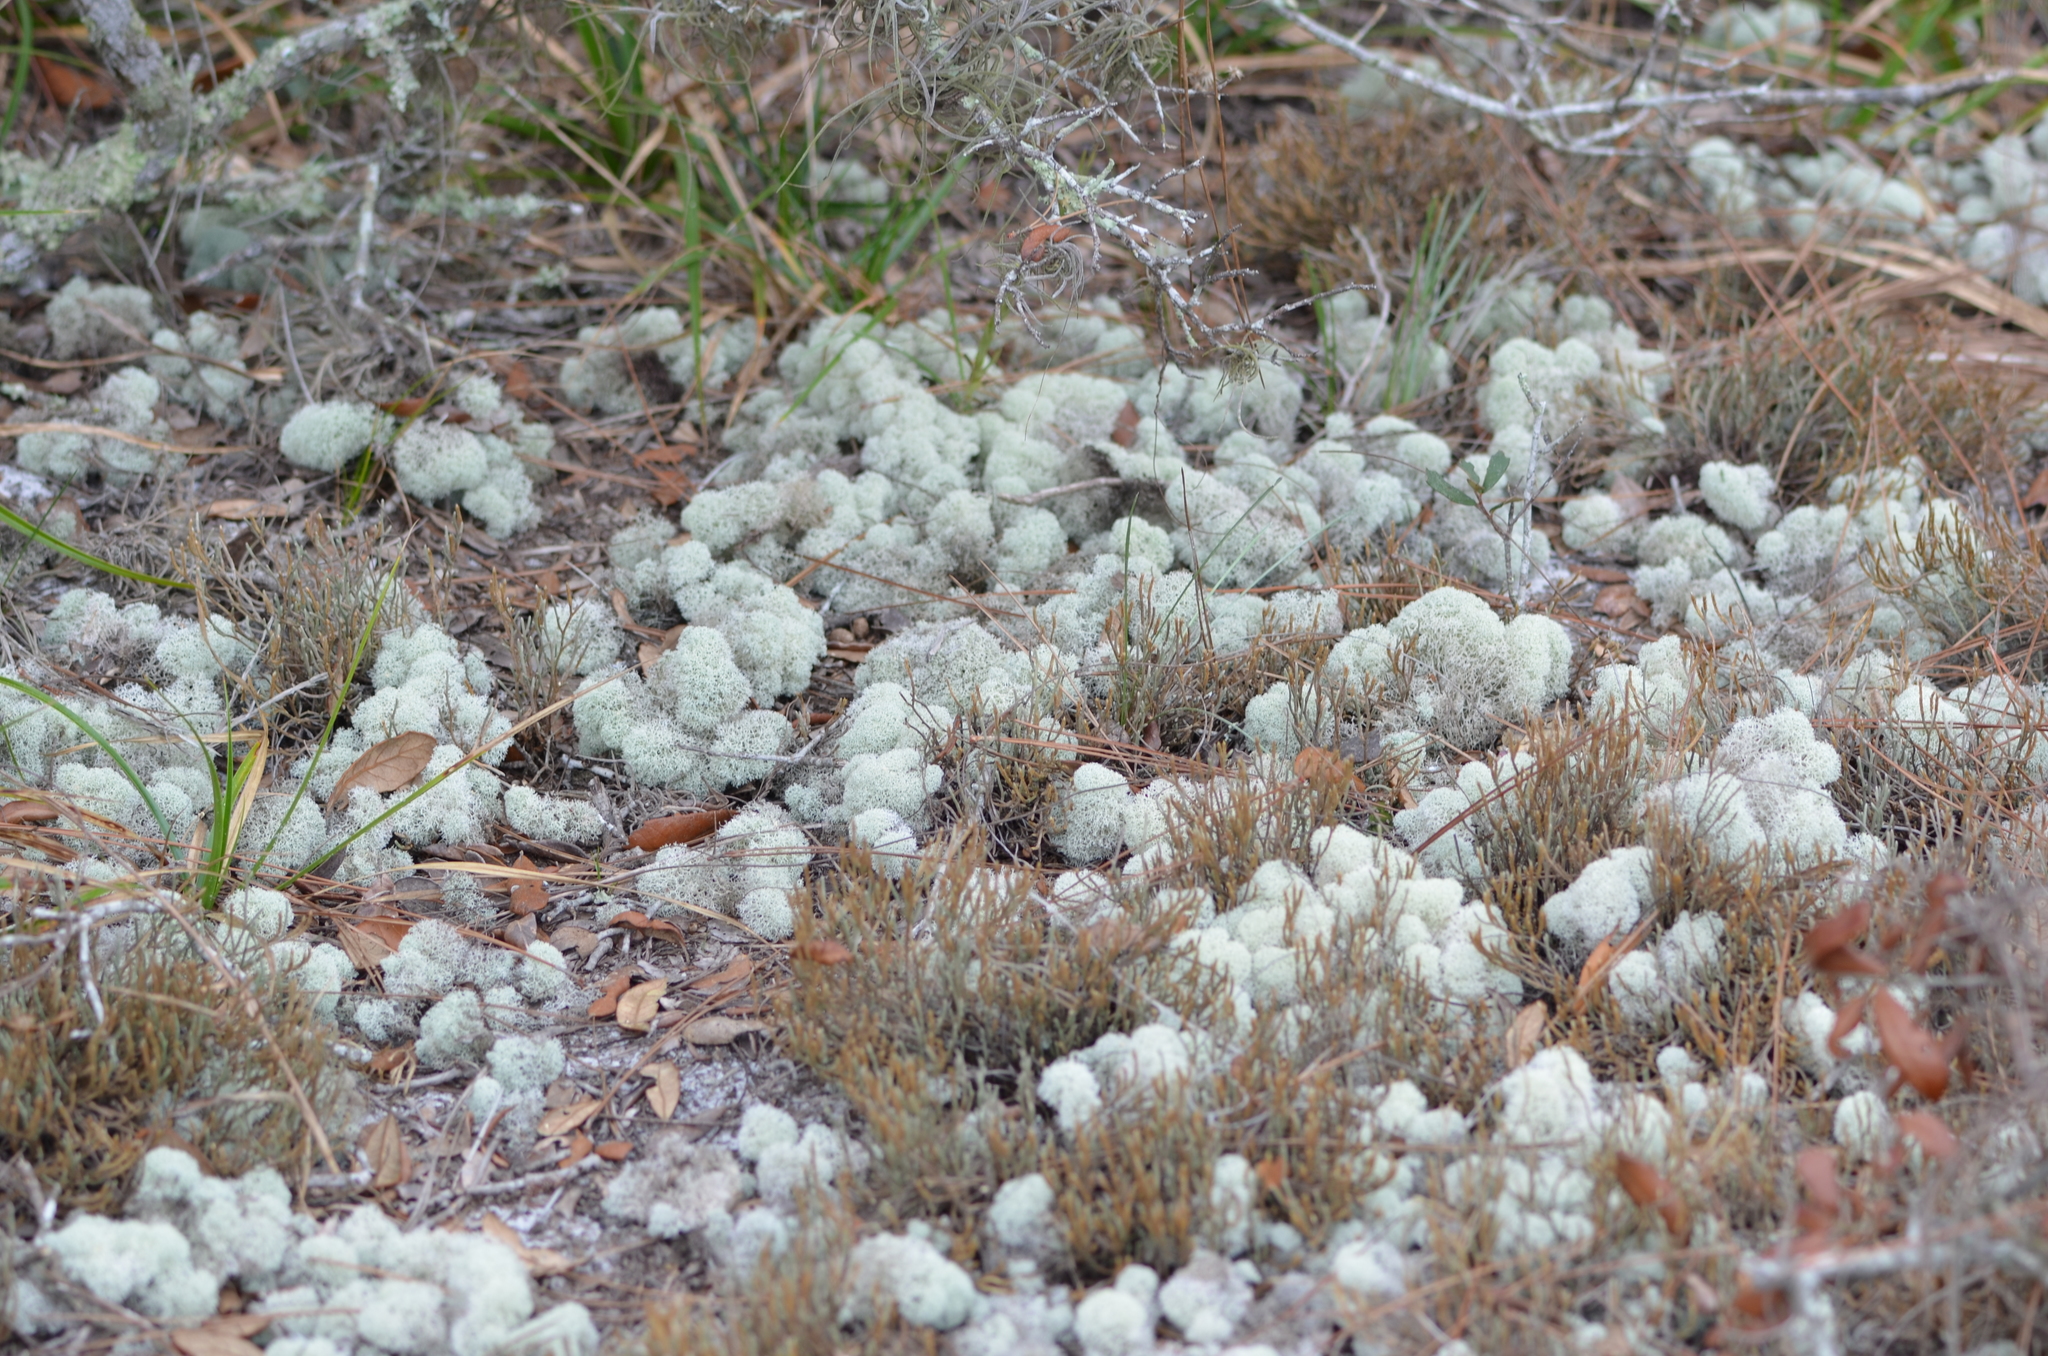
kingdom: Fungi
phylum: Ascomycota
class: Lecanoromycetes
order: Lecanorales
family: Cladoniaceae
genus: Cladonia
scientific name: Cladonia evansii
